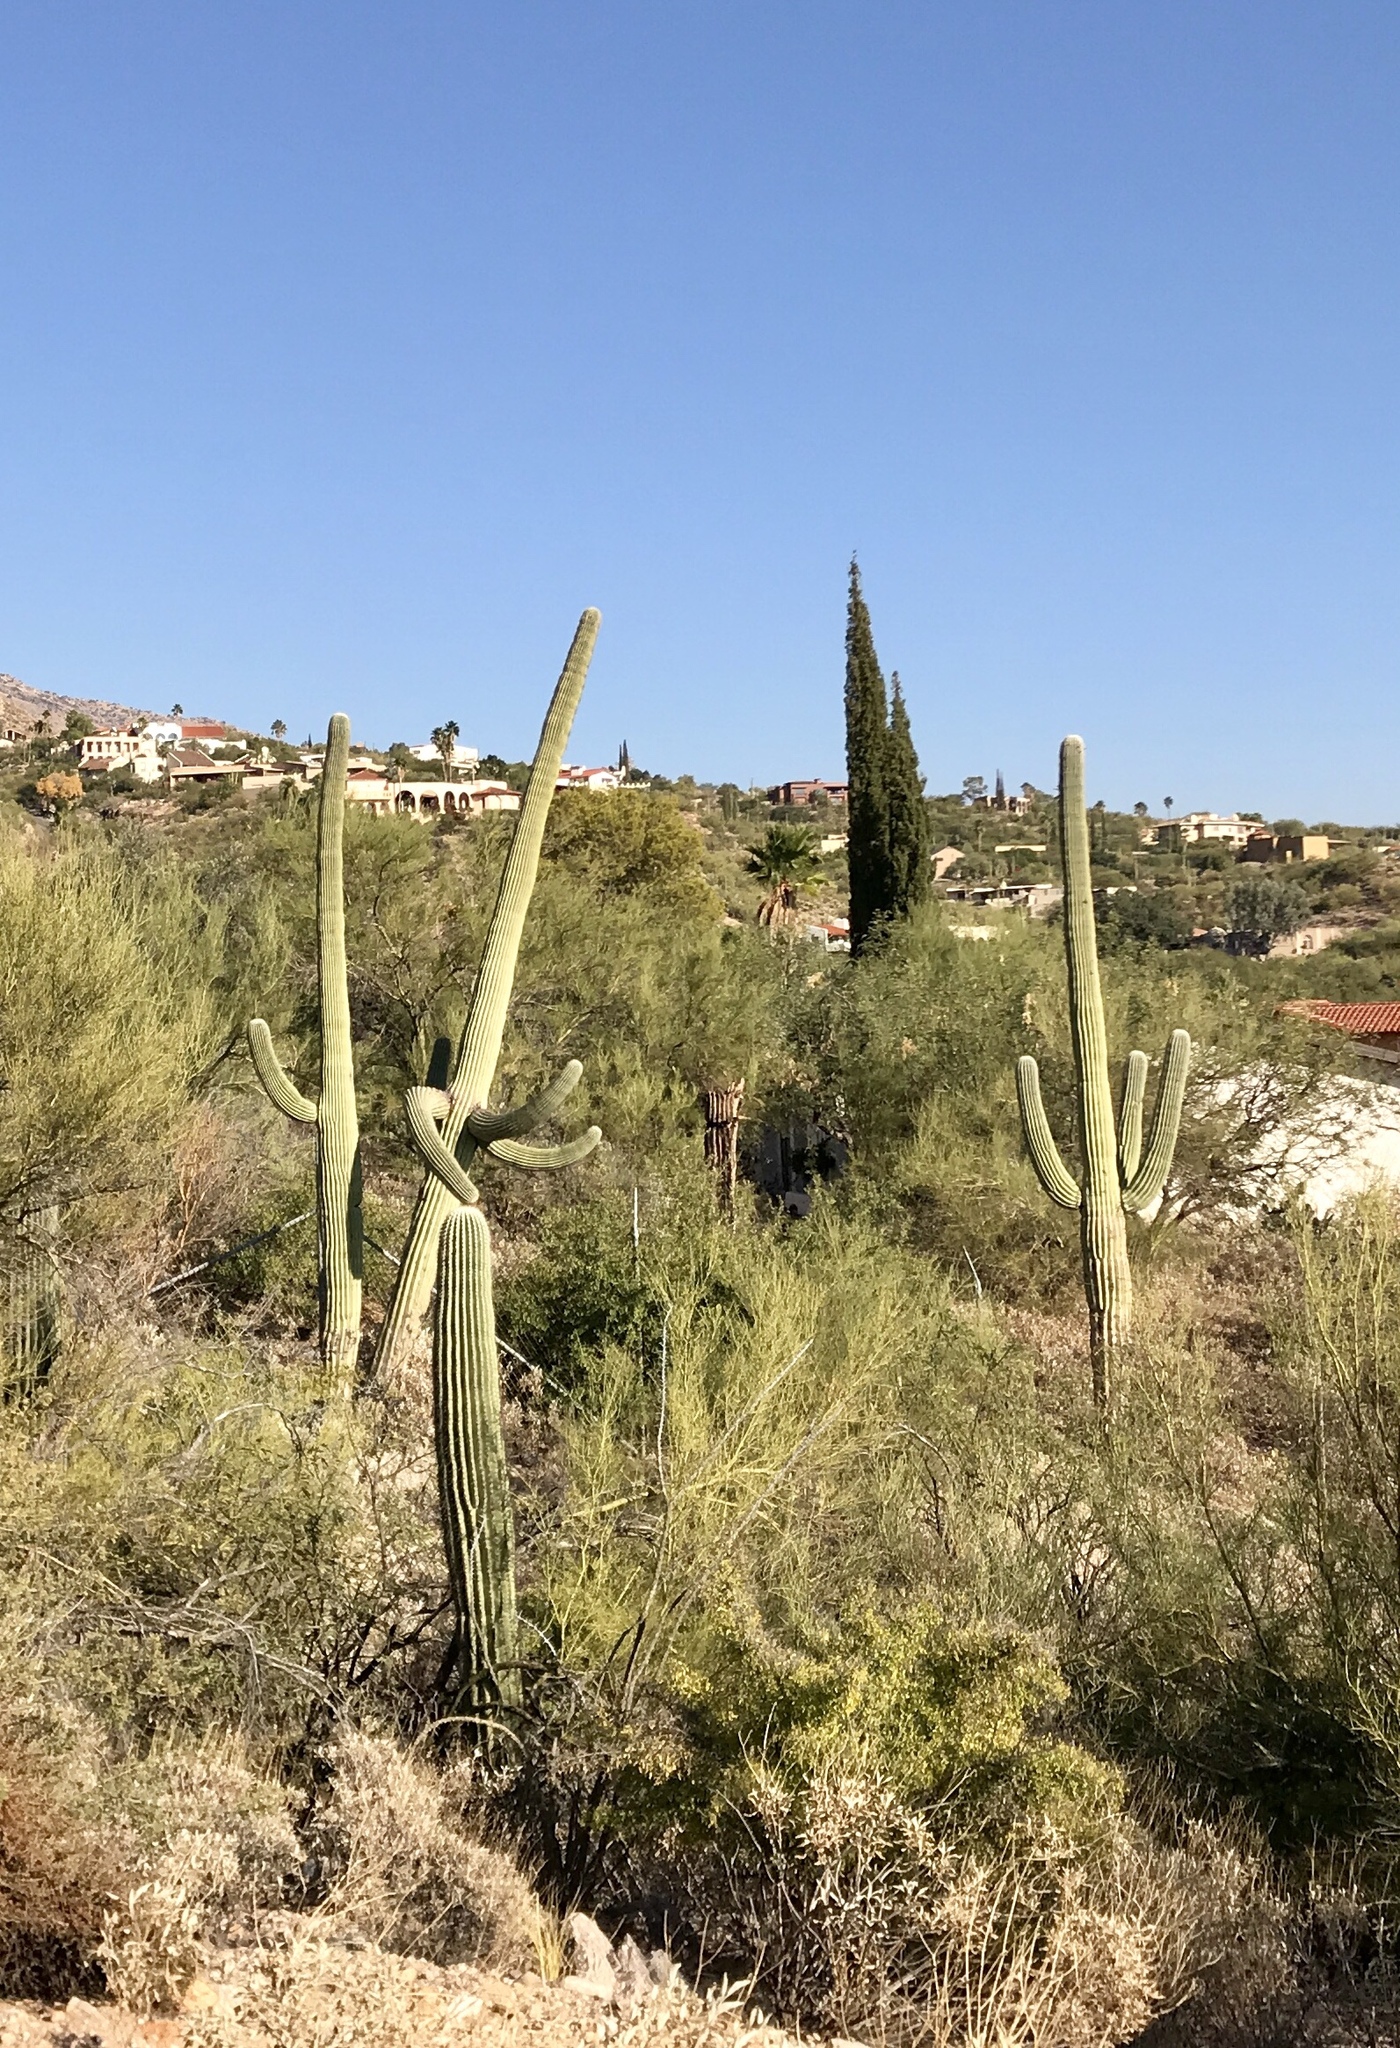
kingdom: Plantae
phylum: Tracheophyta
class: Magnoliopsida
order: Caryophyllales
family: Cactaceae
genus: Carnegiea
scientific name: Carnegiea gigantea
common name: Saguaro
